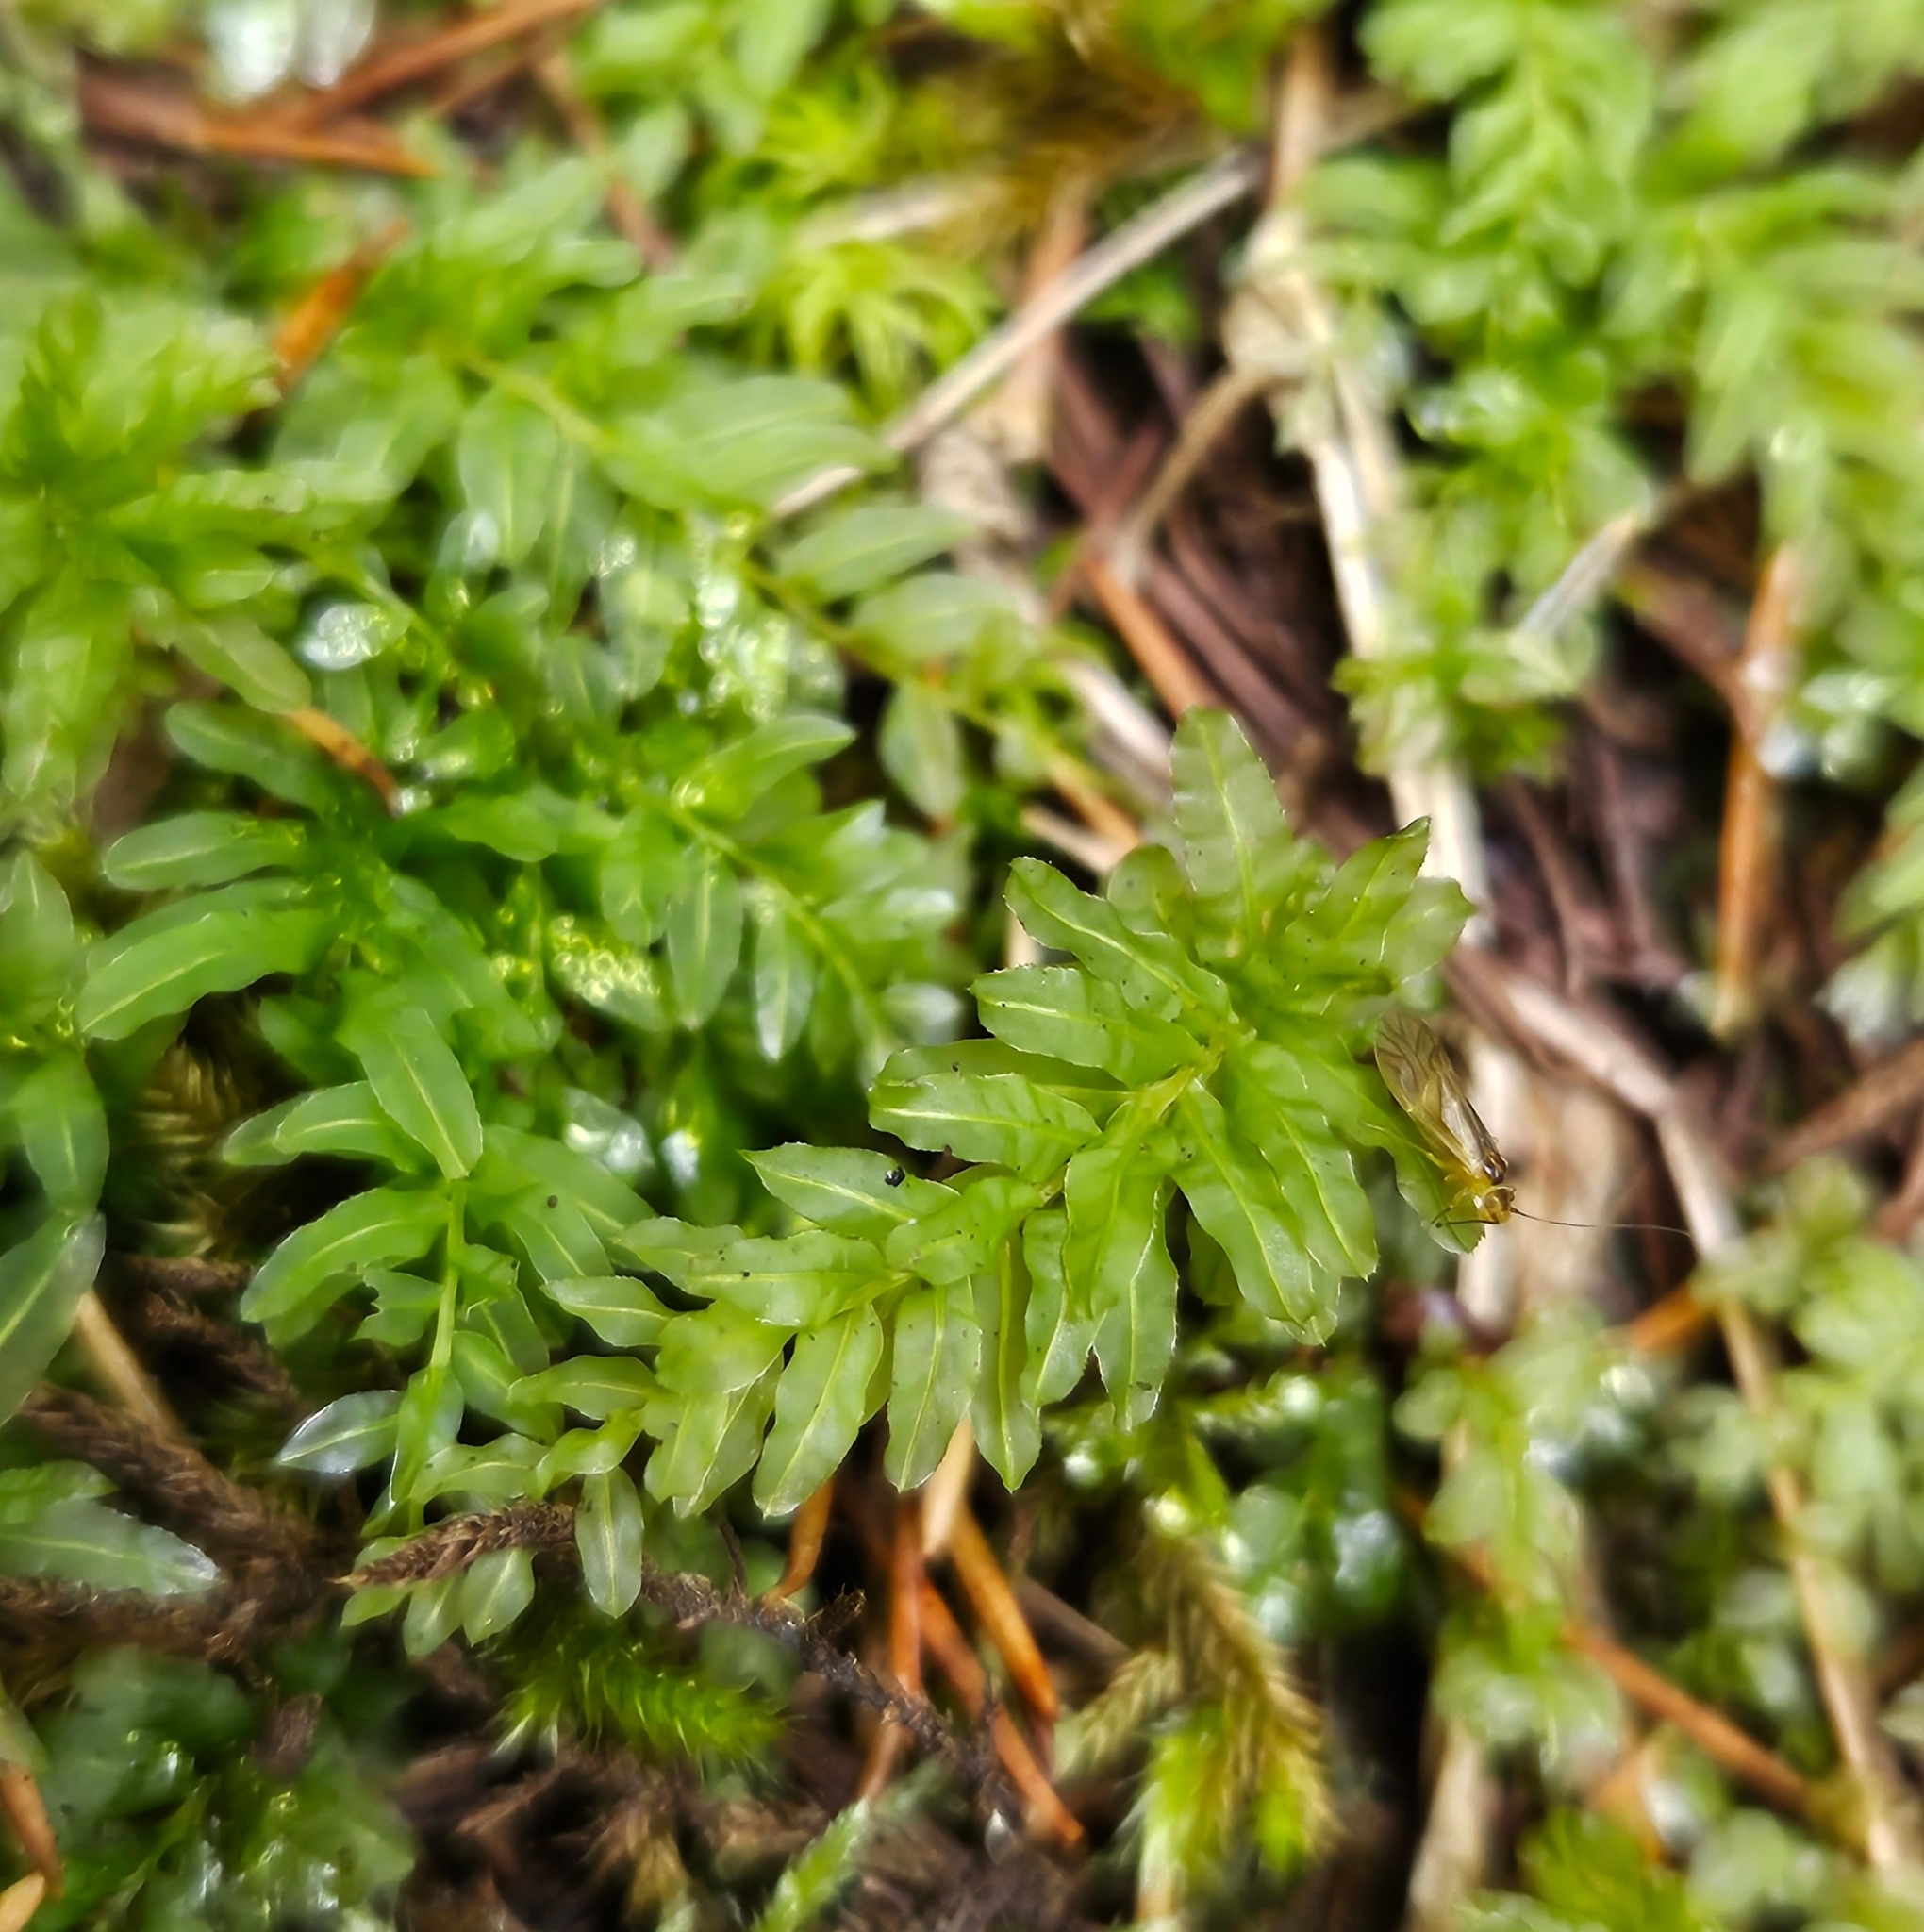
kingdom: Plantae
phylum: Bryophyta
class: Bryopsida
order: Bryales
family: Mniaceae
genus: Plagiomnium
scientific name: Plagiomnium undulatum
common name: Hart's-tongue thyme-moss
